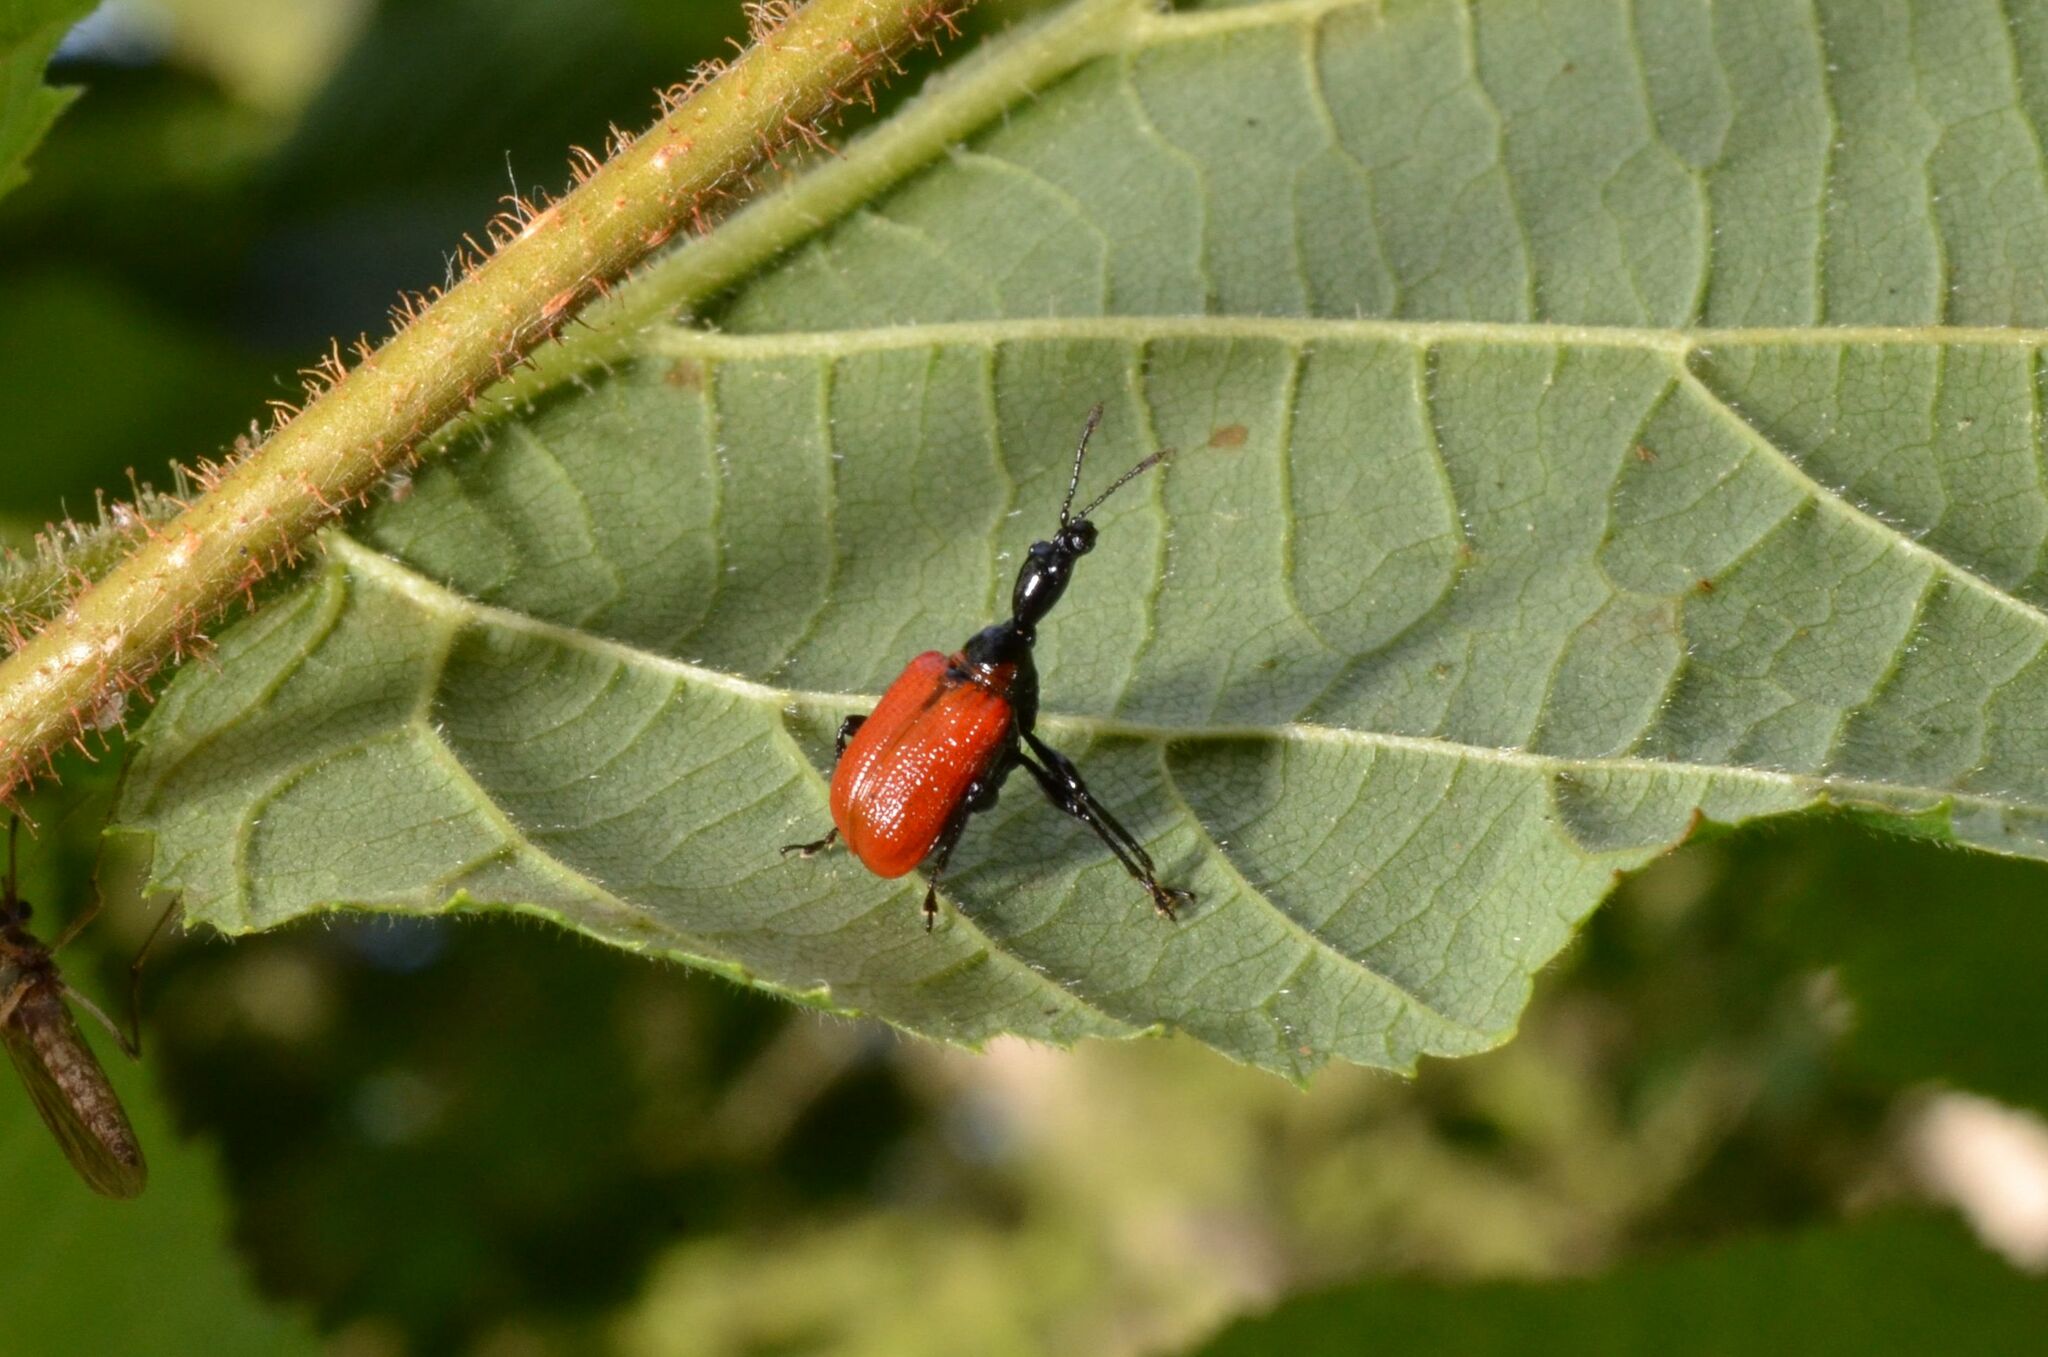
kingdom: Animalia
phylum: Arthropoda
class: Insecta
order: Coleoptera
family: Attelabidae
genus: Apoderus
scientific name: Apoderus coryli
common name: Hazel leaf roller
